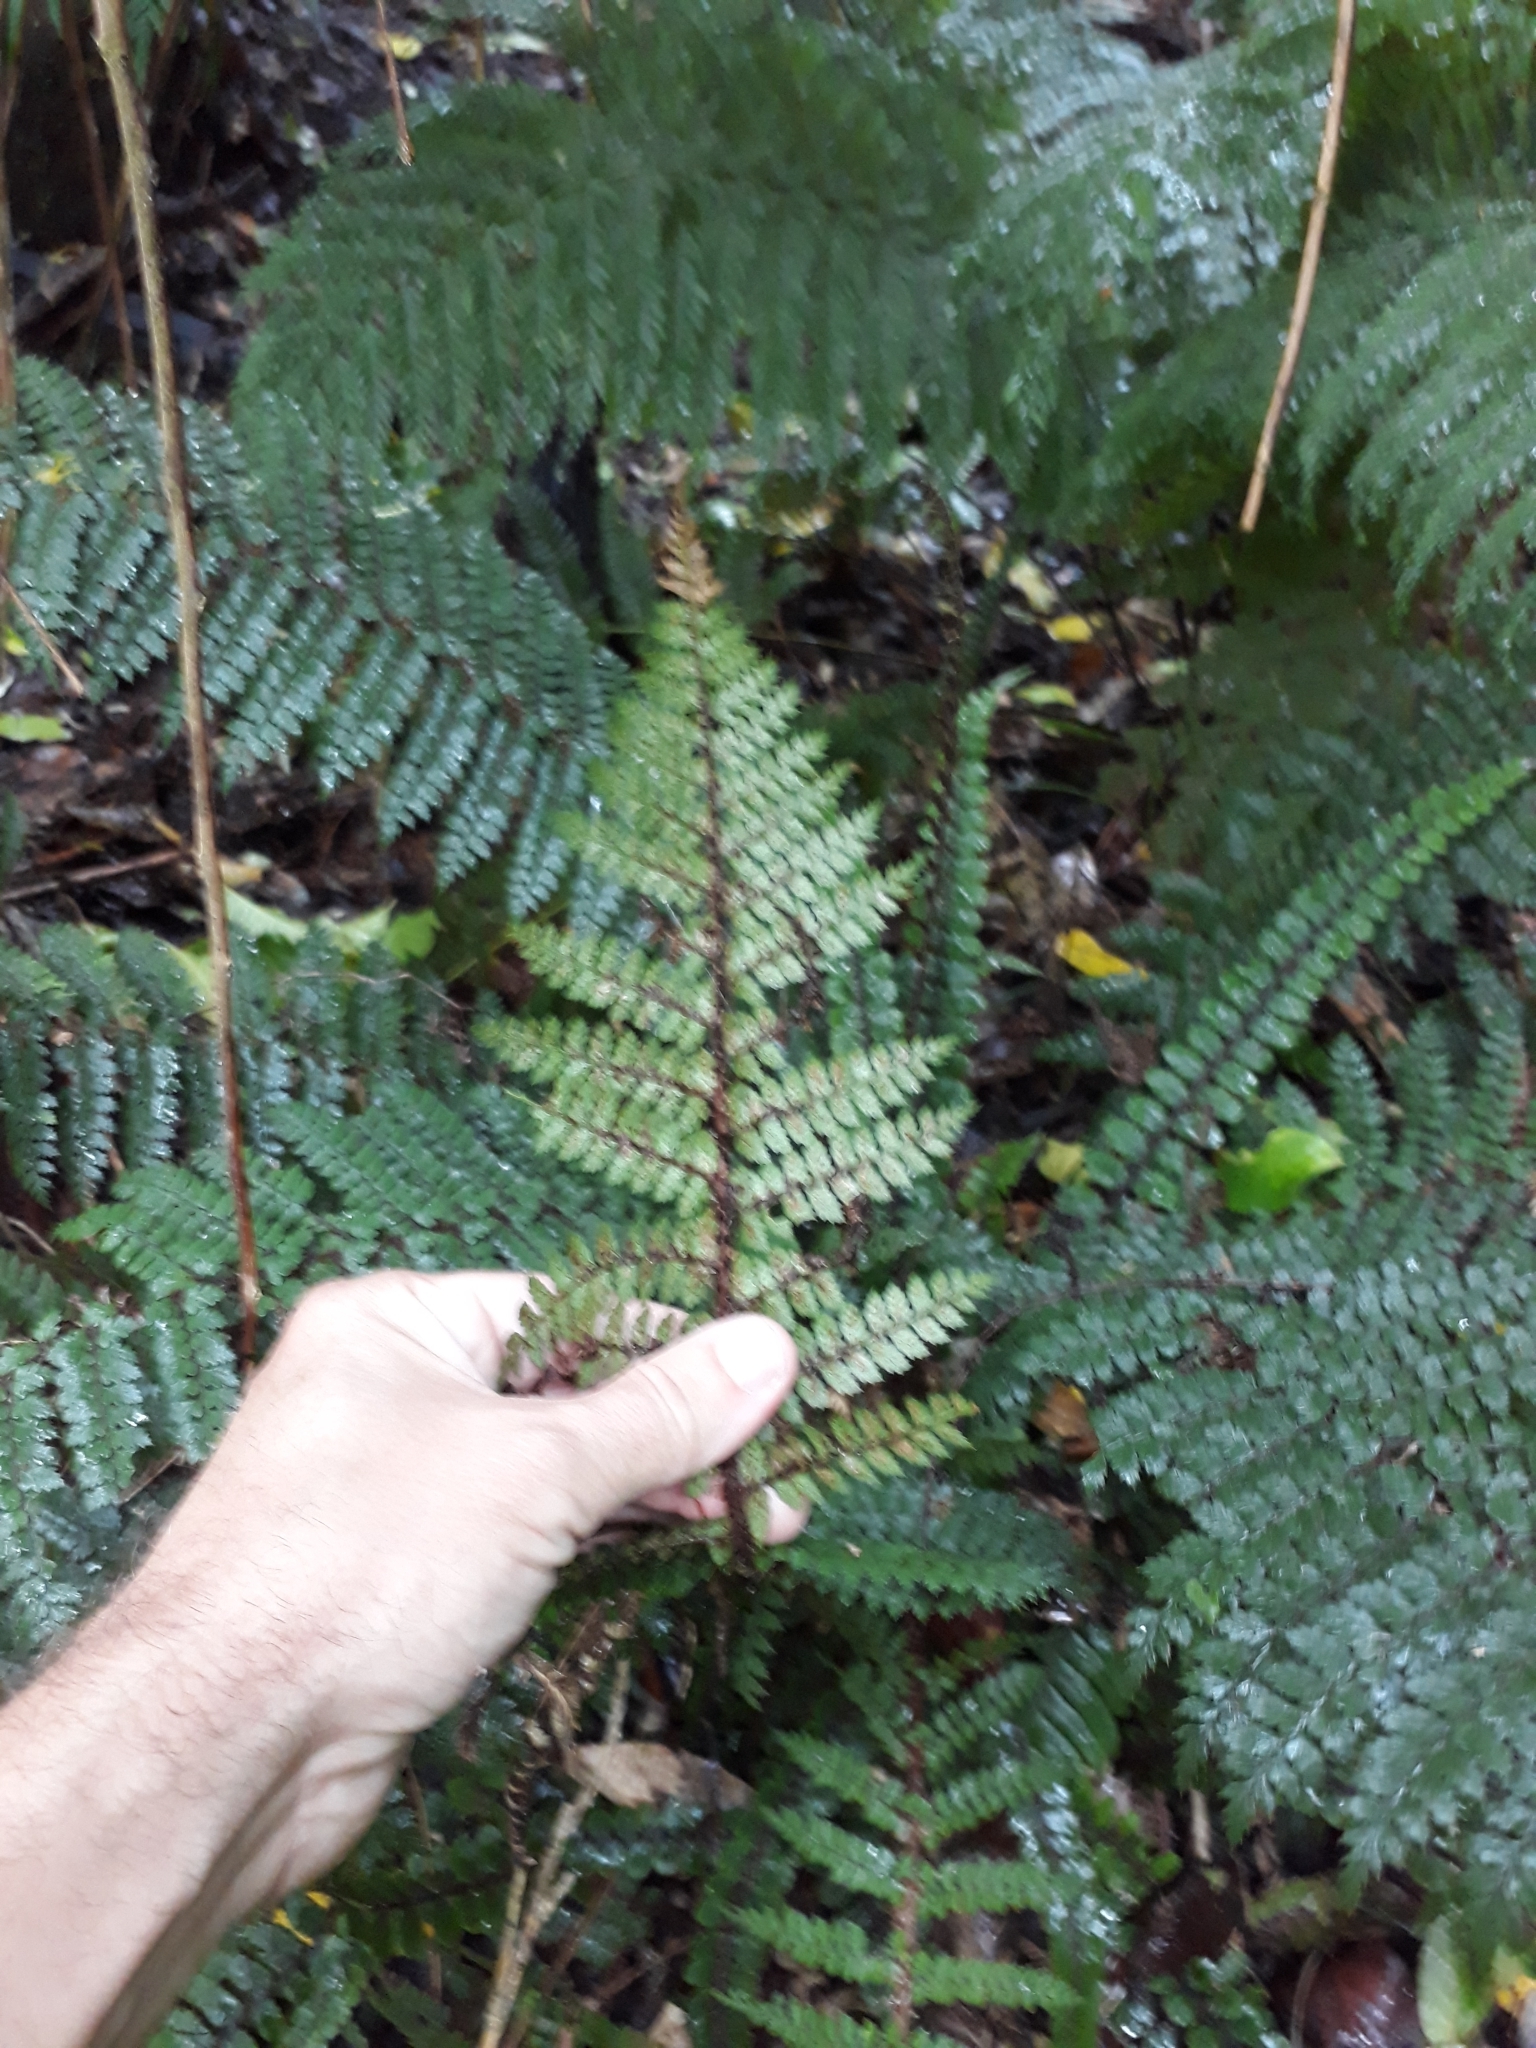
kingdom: Plantae
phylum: Tracheophyta
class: Polypodiopsida
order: Polypodiales
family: Dryopteridaceae
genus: Polystichum
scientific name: Polystichum vestitum
